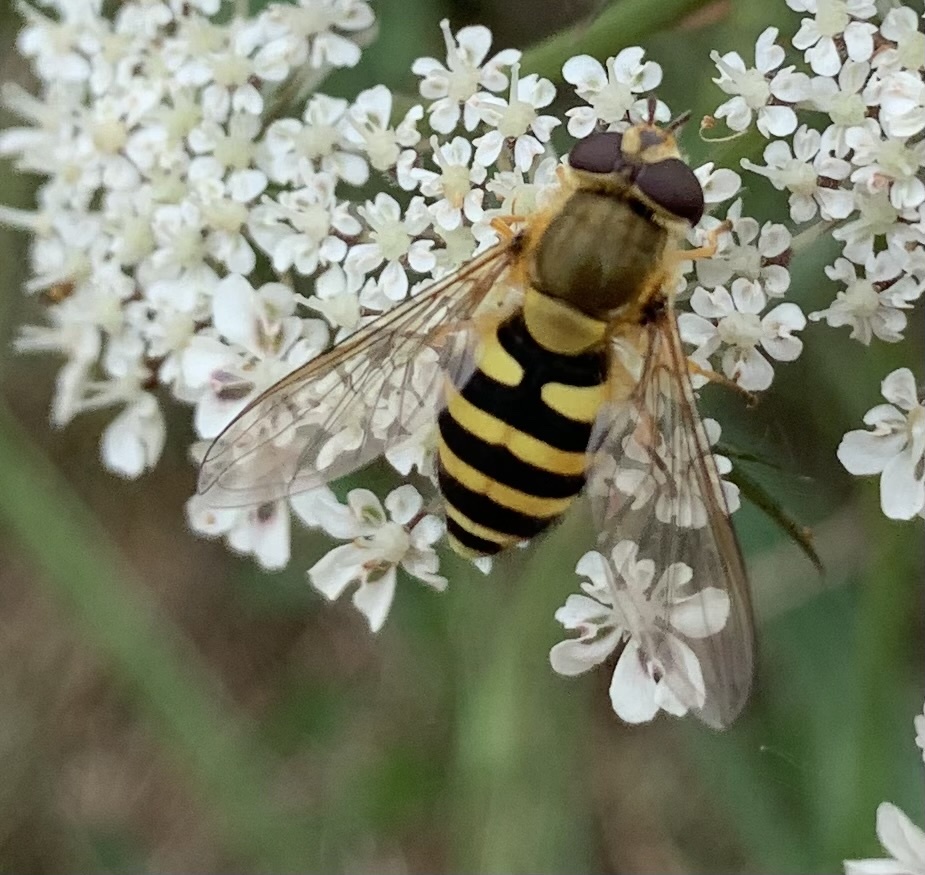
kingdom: Animalia
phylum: Arthropoda
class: Insecta
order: Diptera
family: Syrphidae
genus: Syrphus
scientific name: Syrphus
